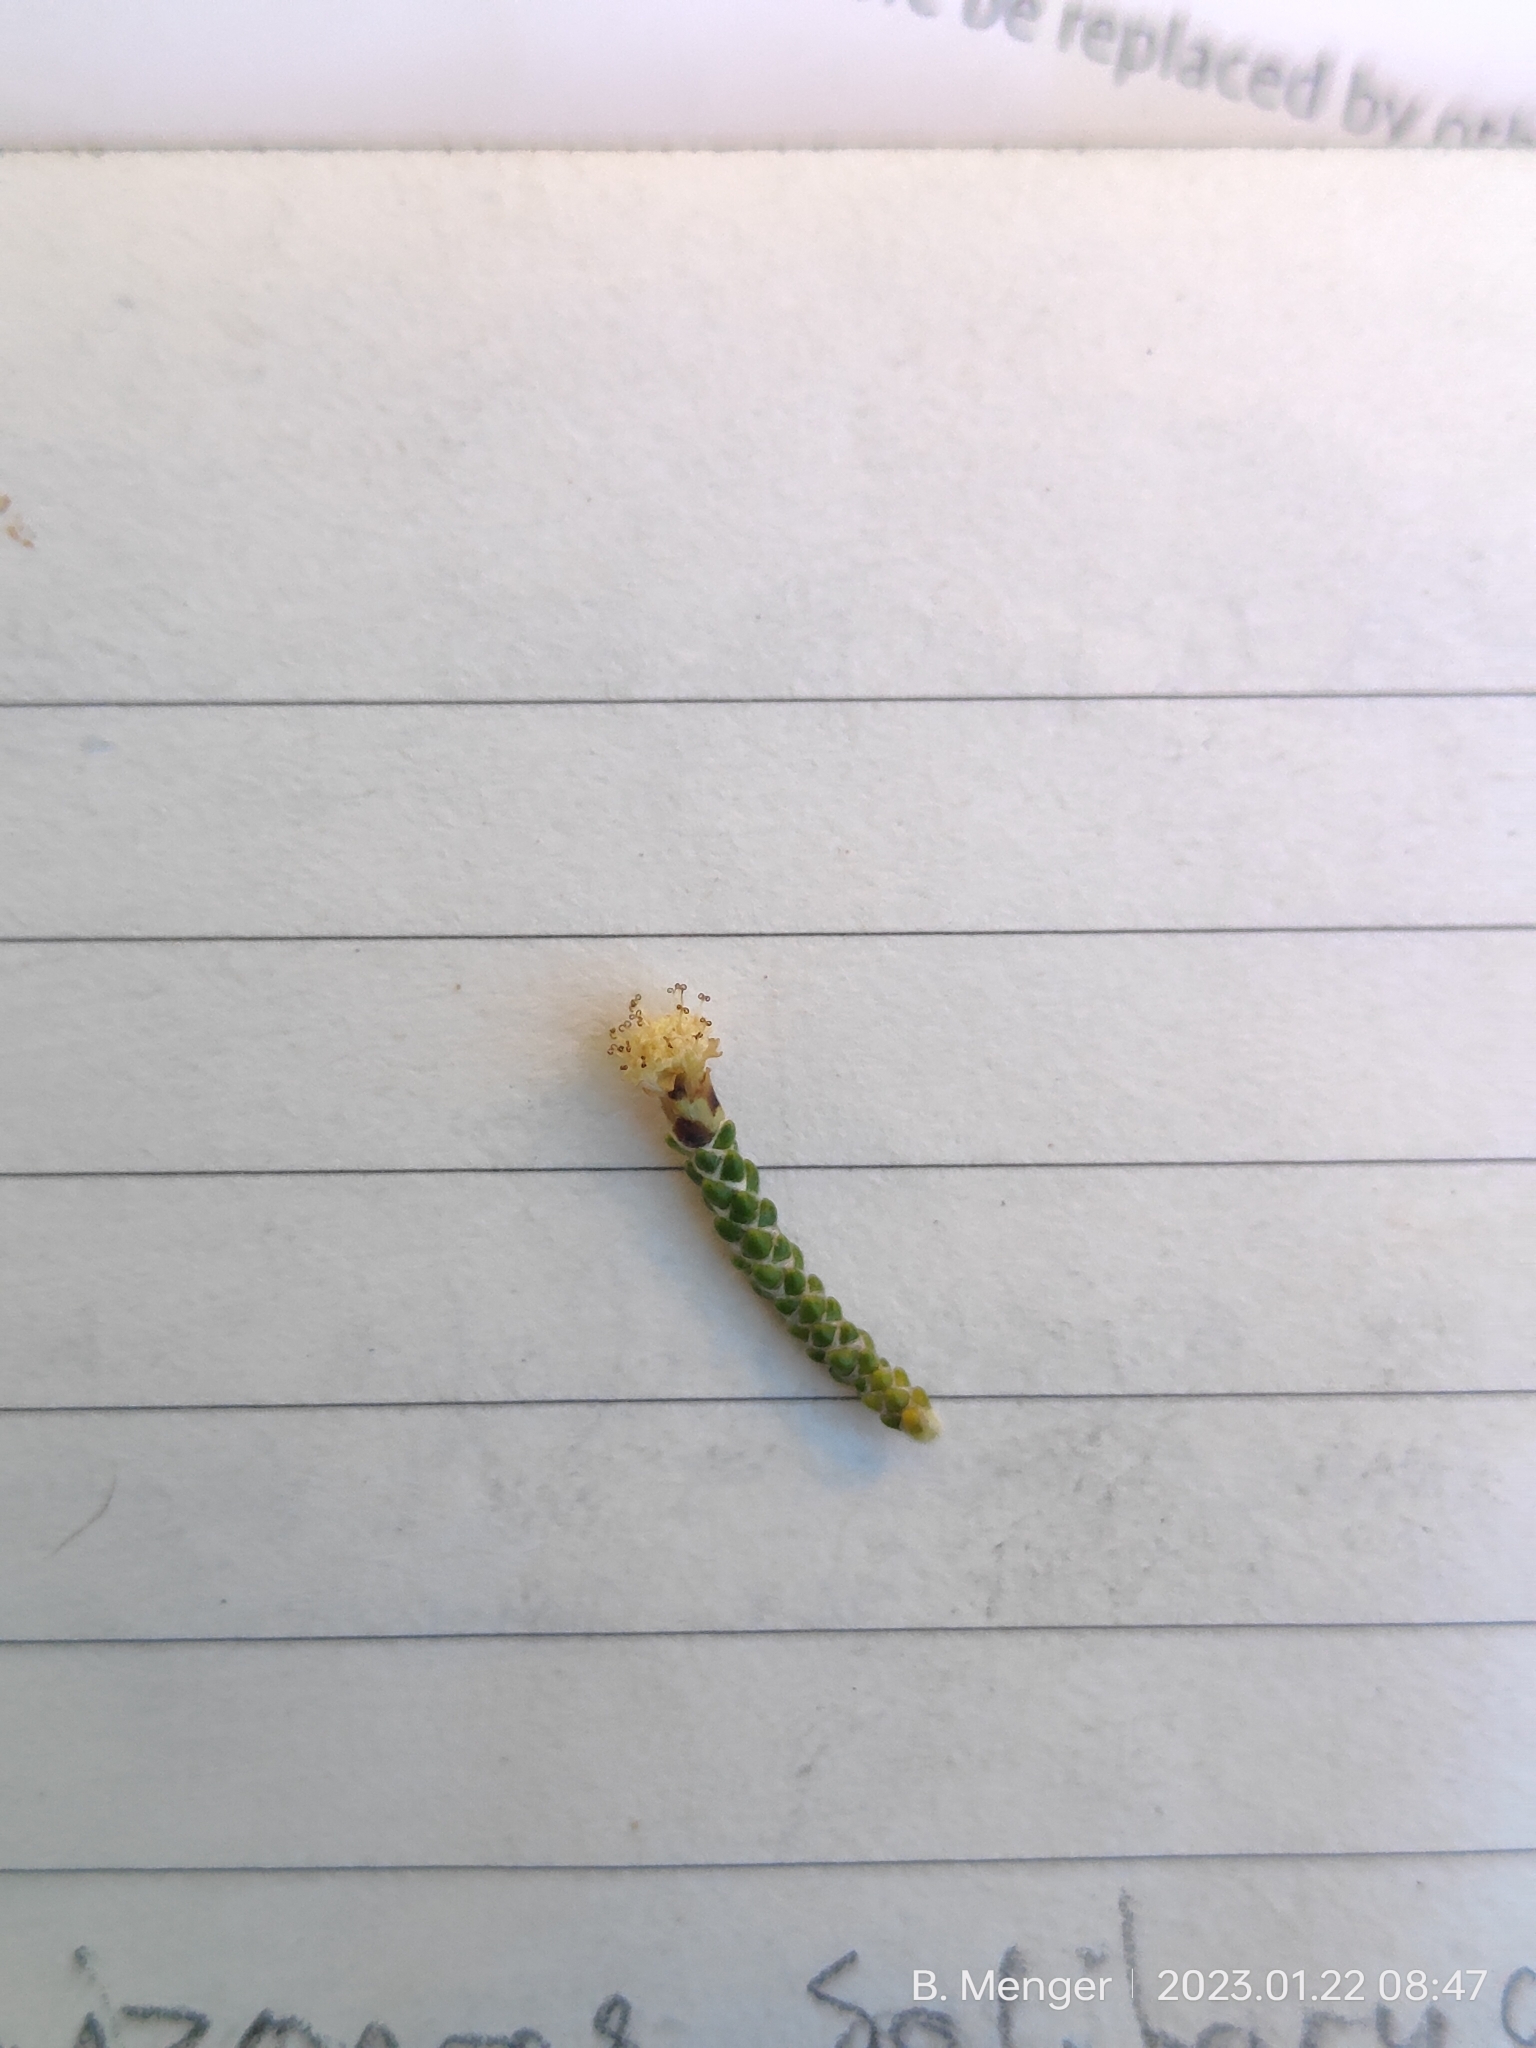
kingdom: Plantae
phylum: Tracheophyta
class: Magnoliopsida
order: Asterales
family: Asteraceae
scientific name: Asteraceae
